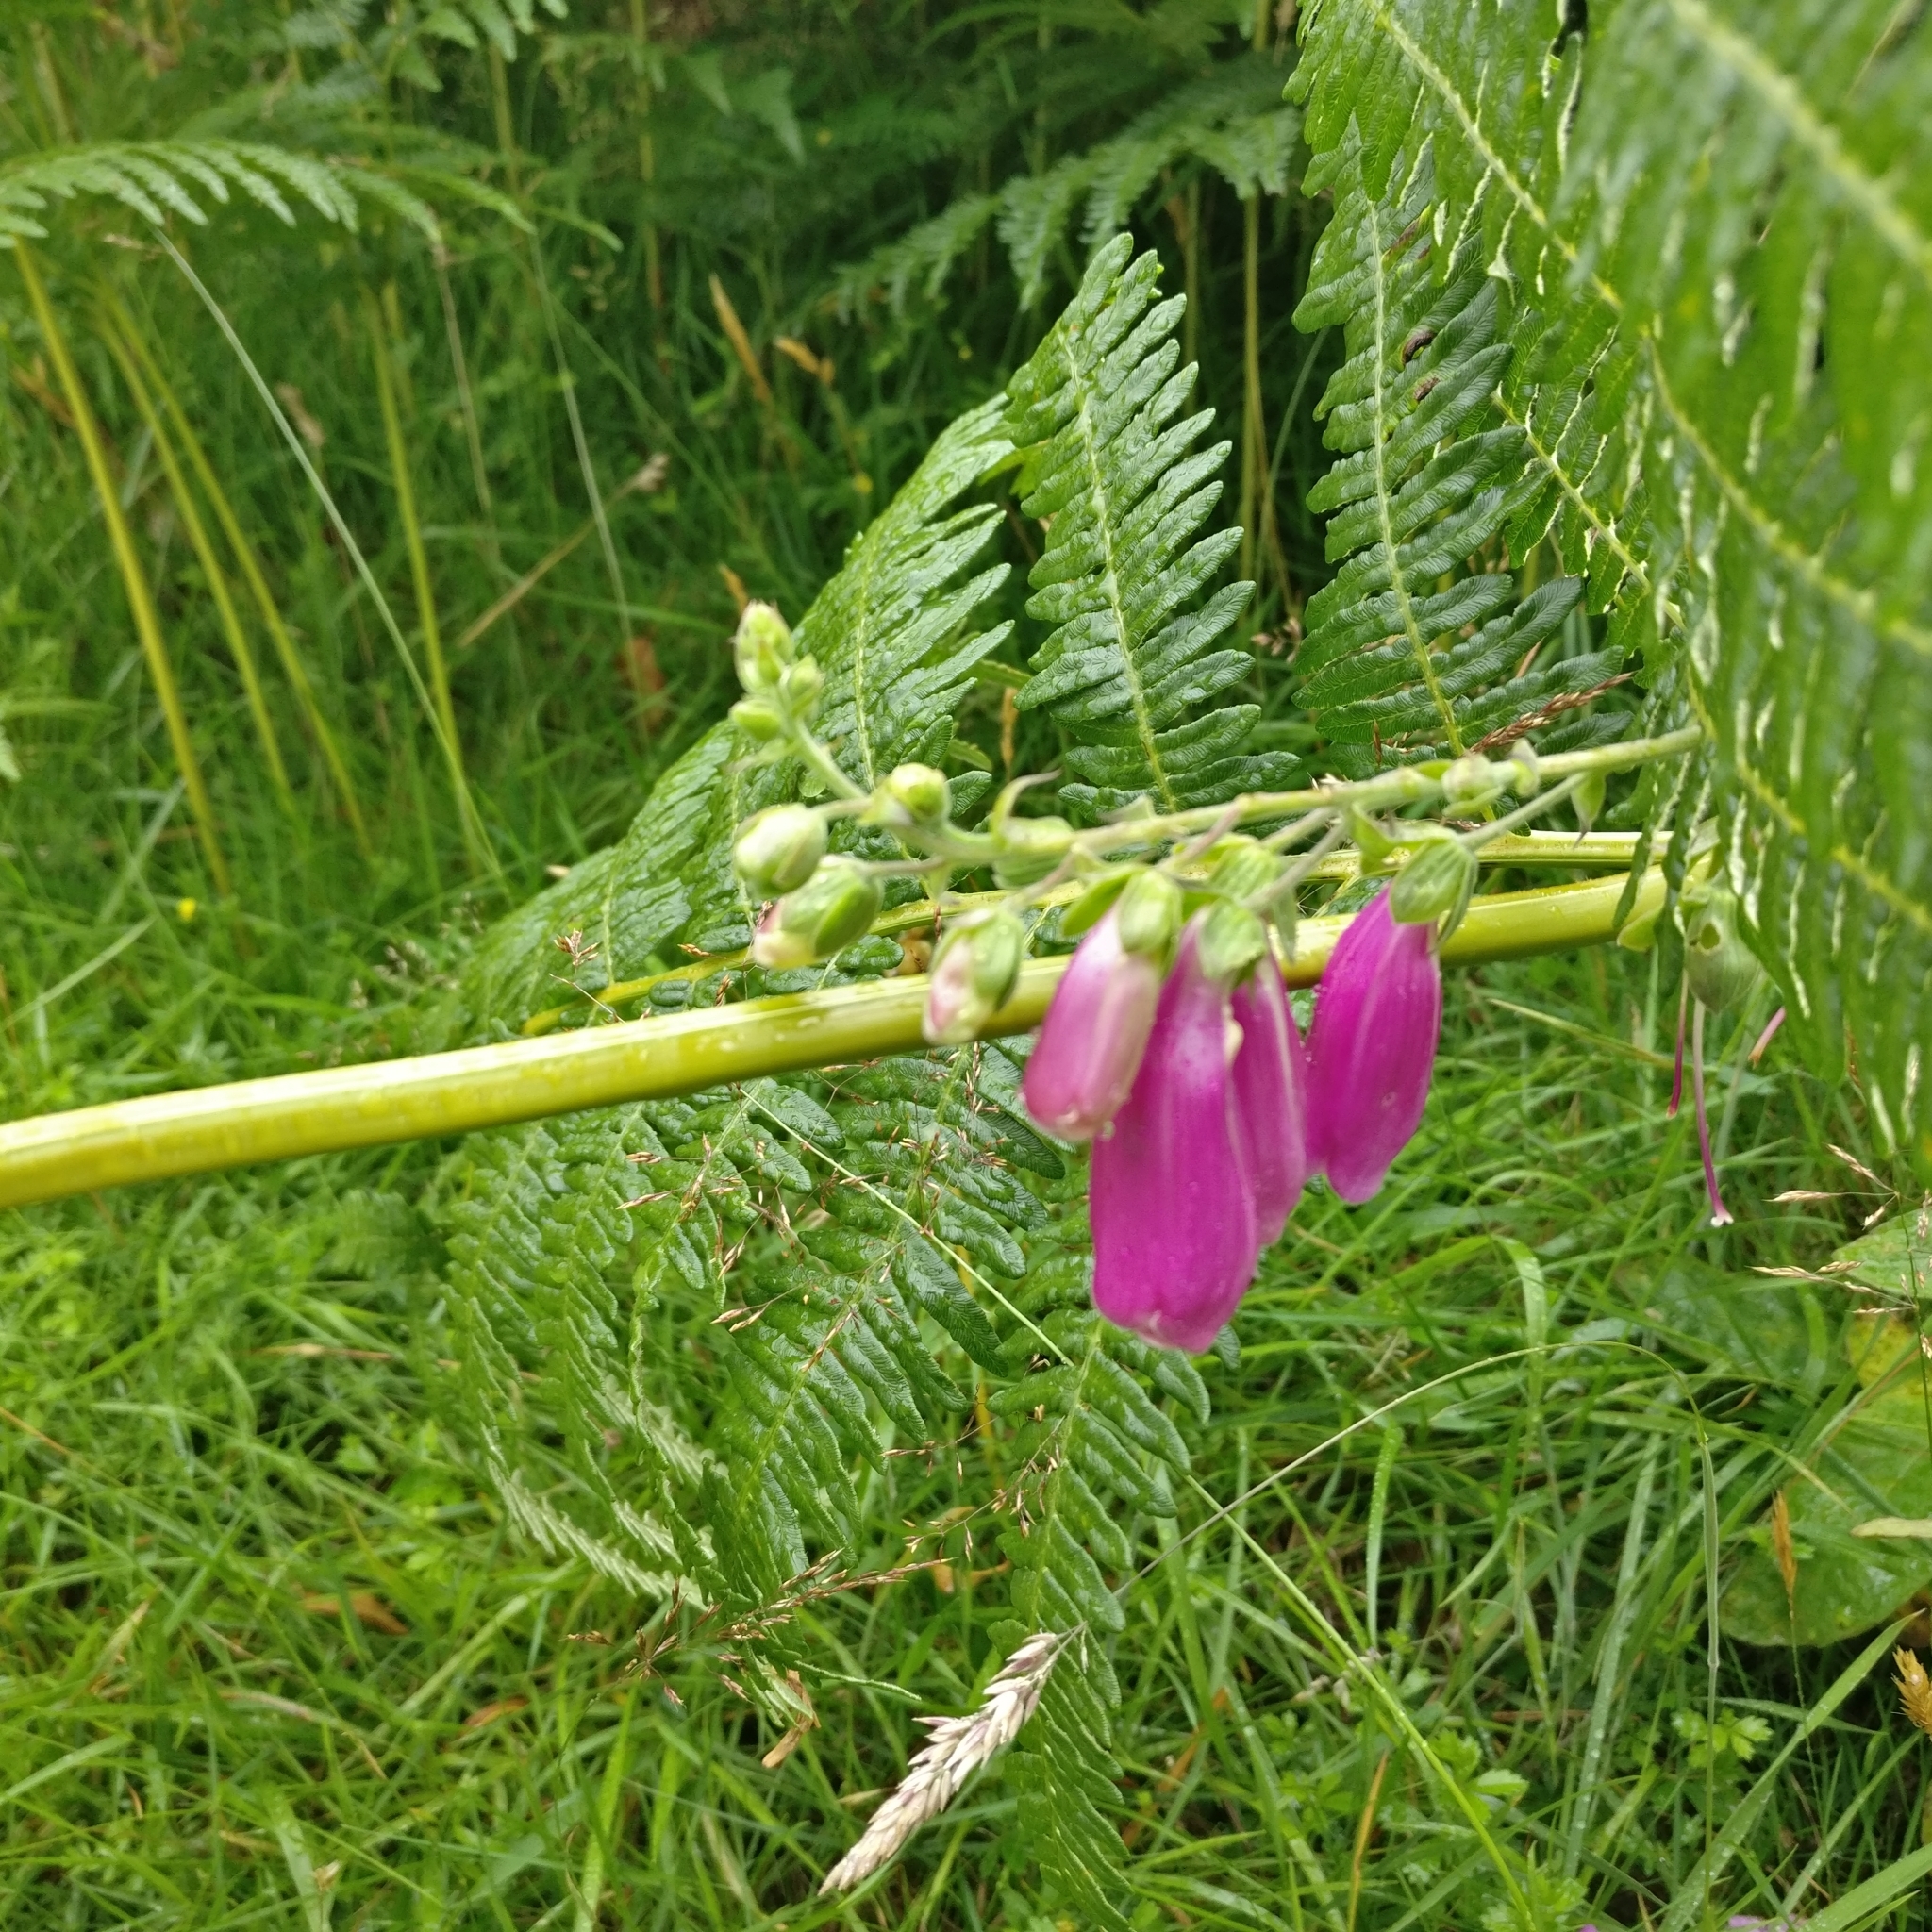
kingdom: Plantae
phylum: Tracheophyta
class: Magnoliopsida
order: Lamiales
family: Plantaginaceae
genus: Digitalis
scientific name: Digitalis purpurea
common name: Foxglove
